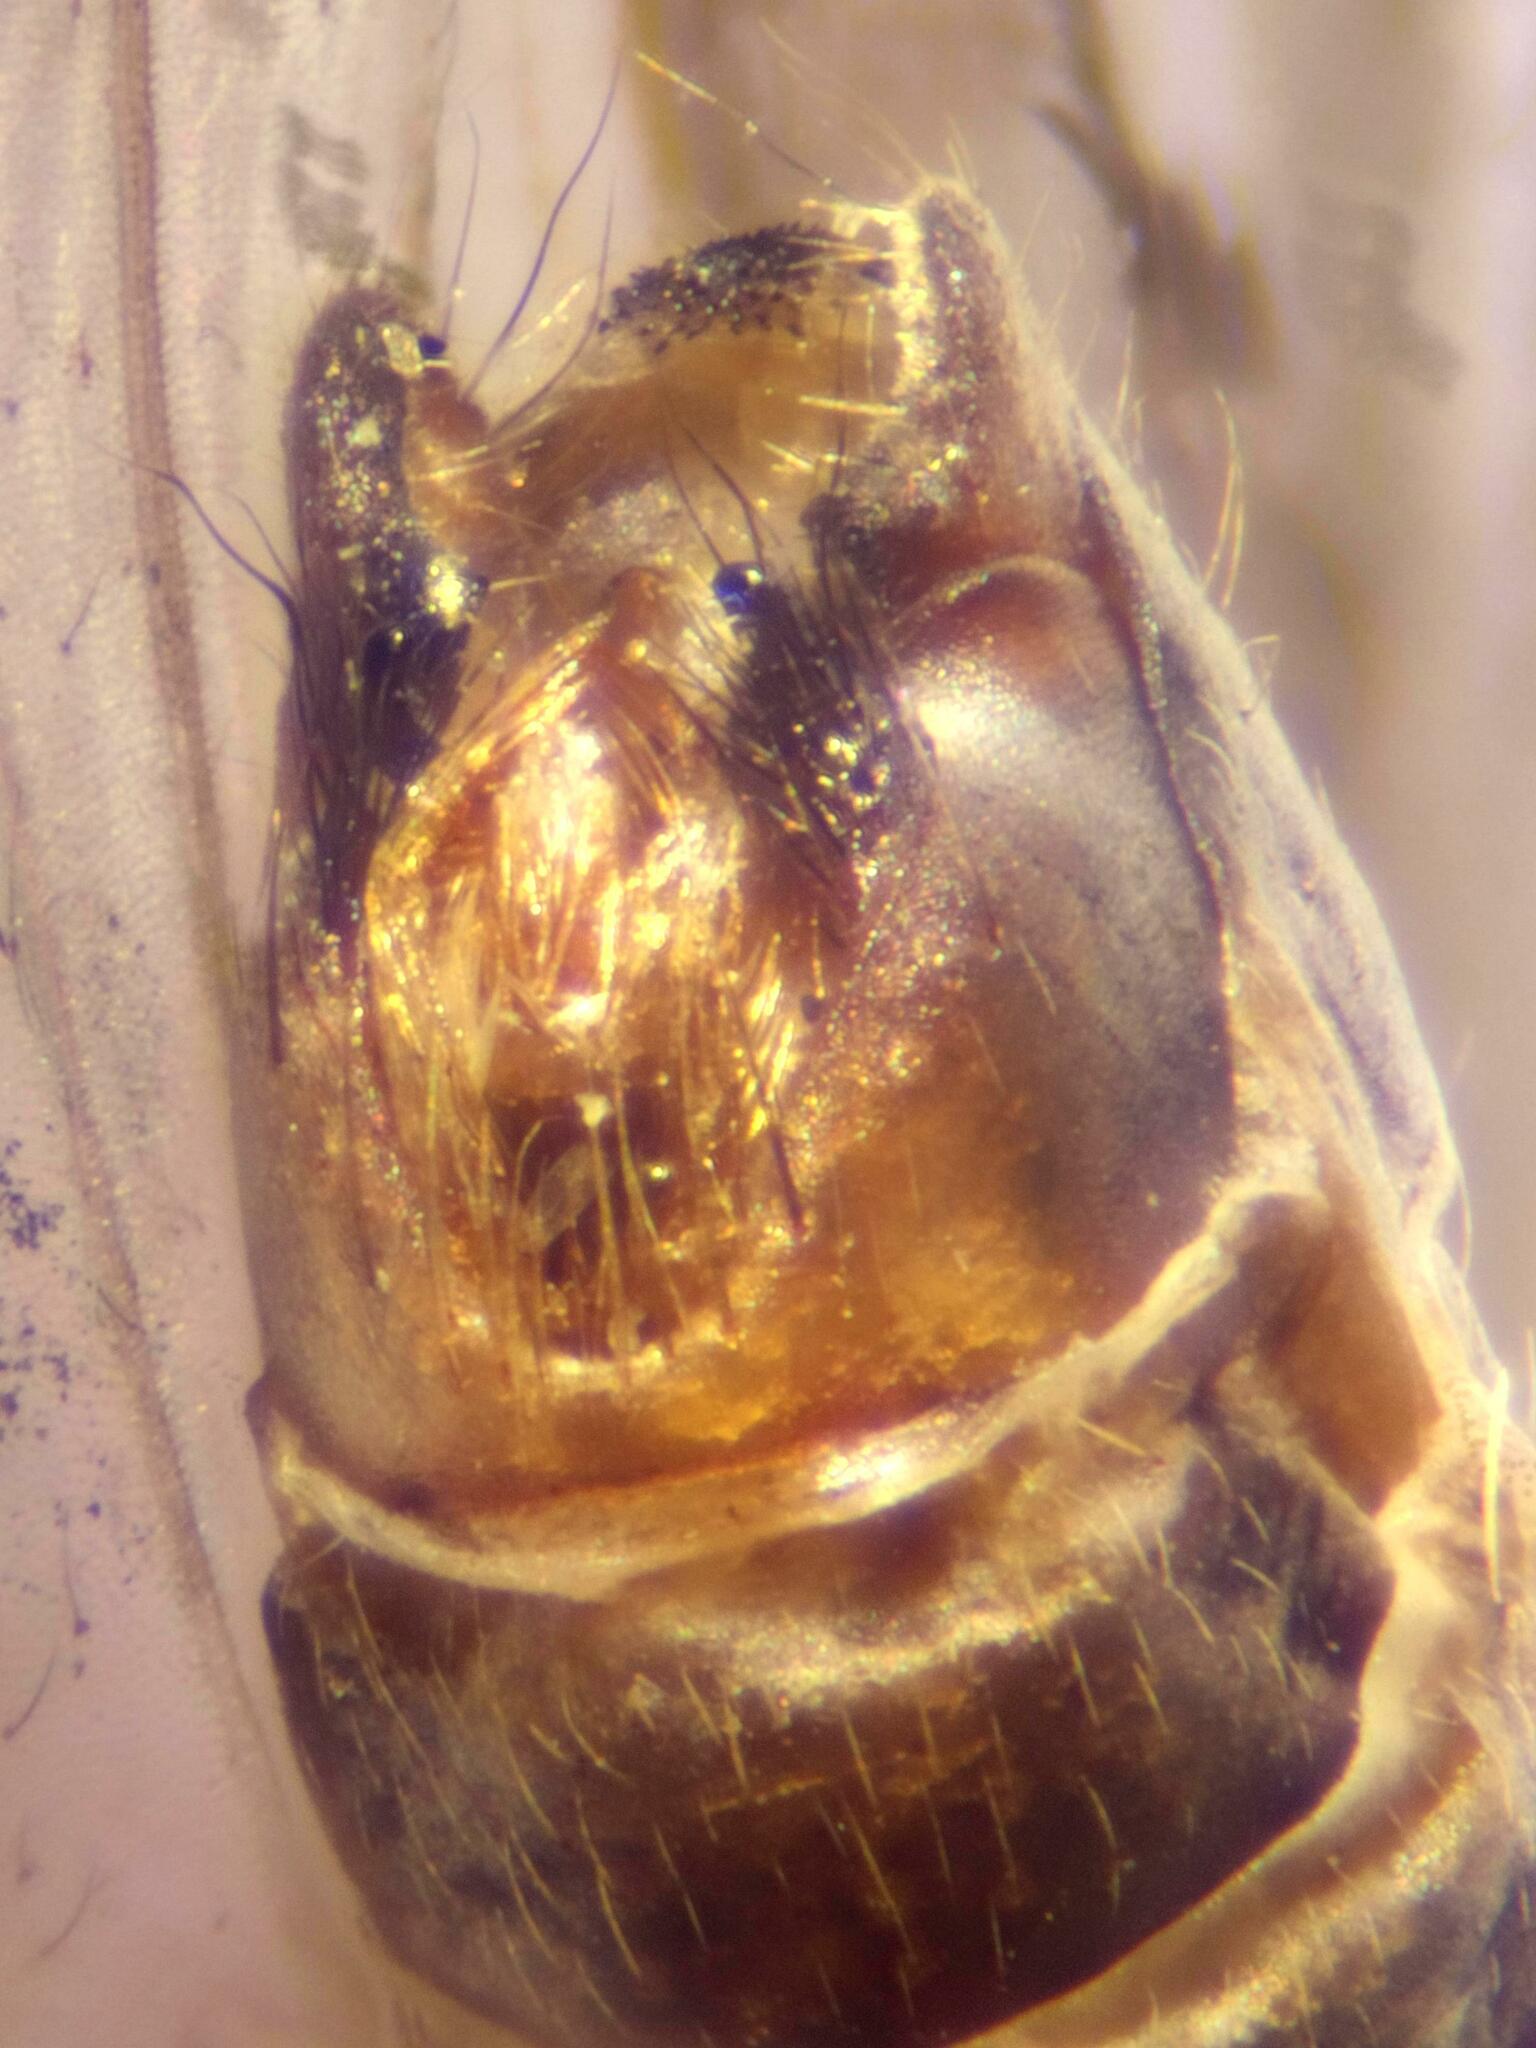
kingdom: Animalia
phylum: Arthropoda
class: Insecta
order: Trichoptera
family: Limnephilidae
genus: Limnephilus
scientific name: Limnephilus sparsus
